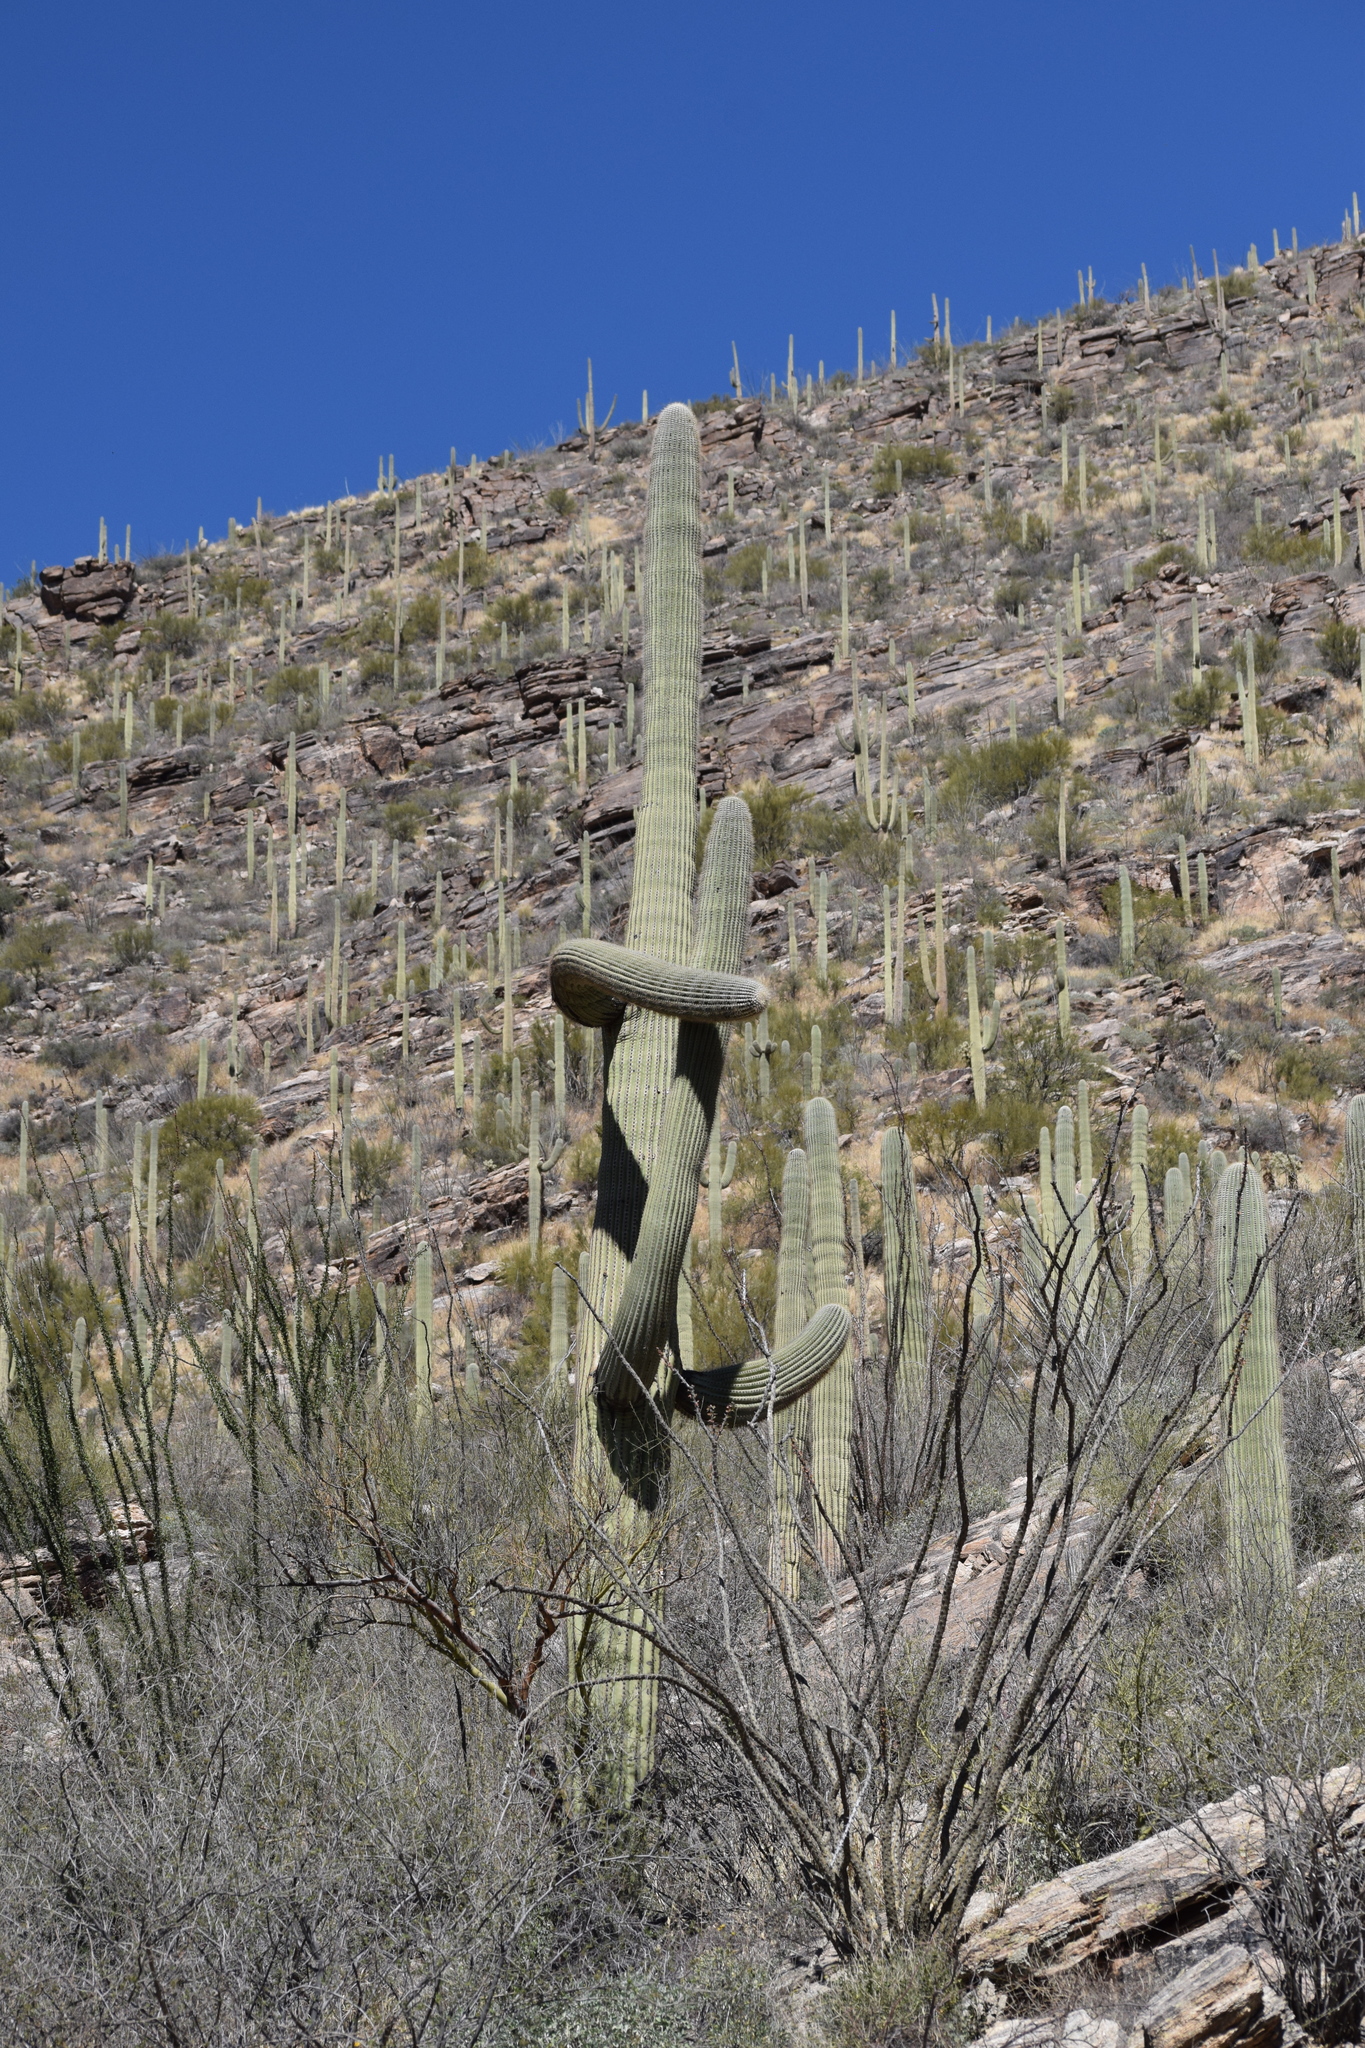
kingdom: Plantae
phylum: Tracheophyta
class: Magnoliopsida
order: Caryophyllales
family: Cactaceae
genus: Carnegiea
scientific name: Carnegiea gigantea
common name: Saguaro
